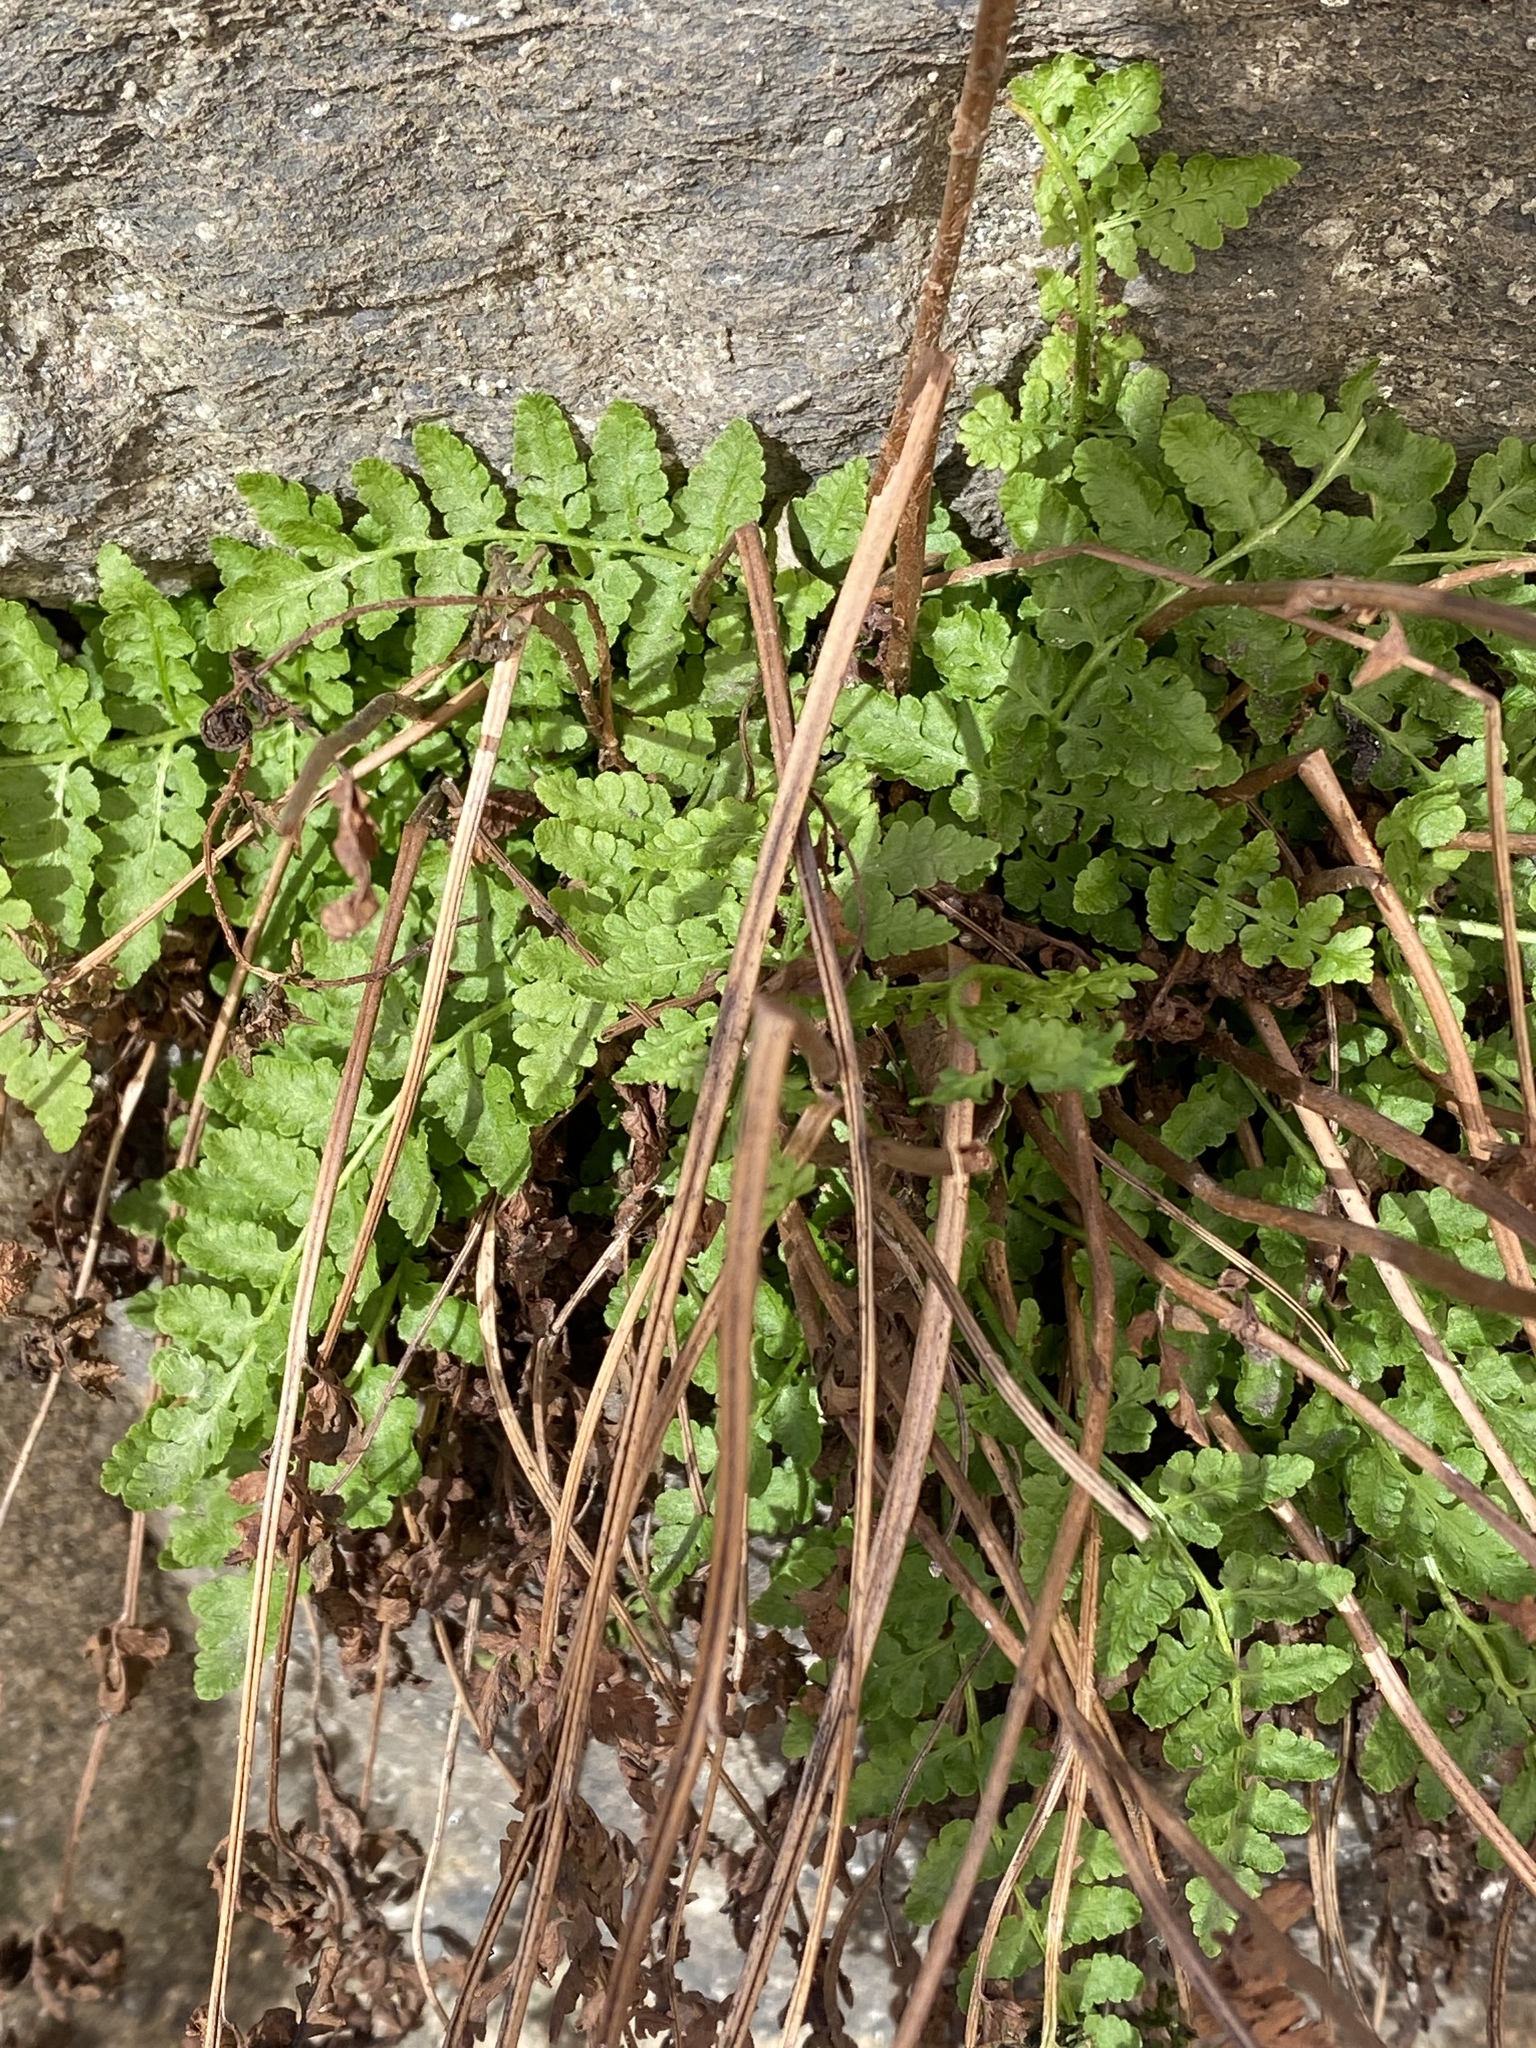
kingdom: Plantae
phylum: Tracheophyta
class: Polypodiopsida
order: Polypodiales
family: Woodsiaceae
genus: Physematium
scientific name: Physematium obtusum
